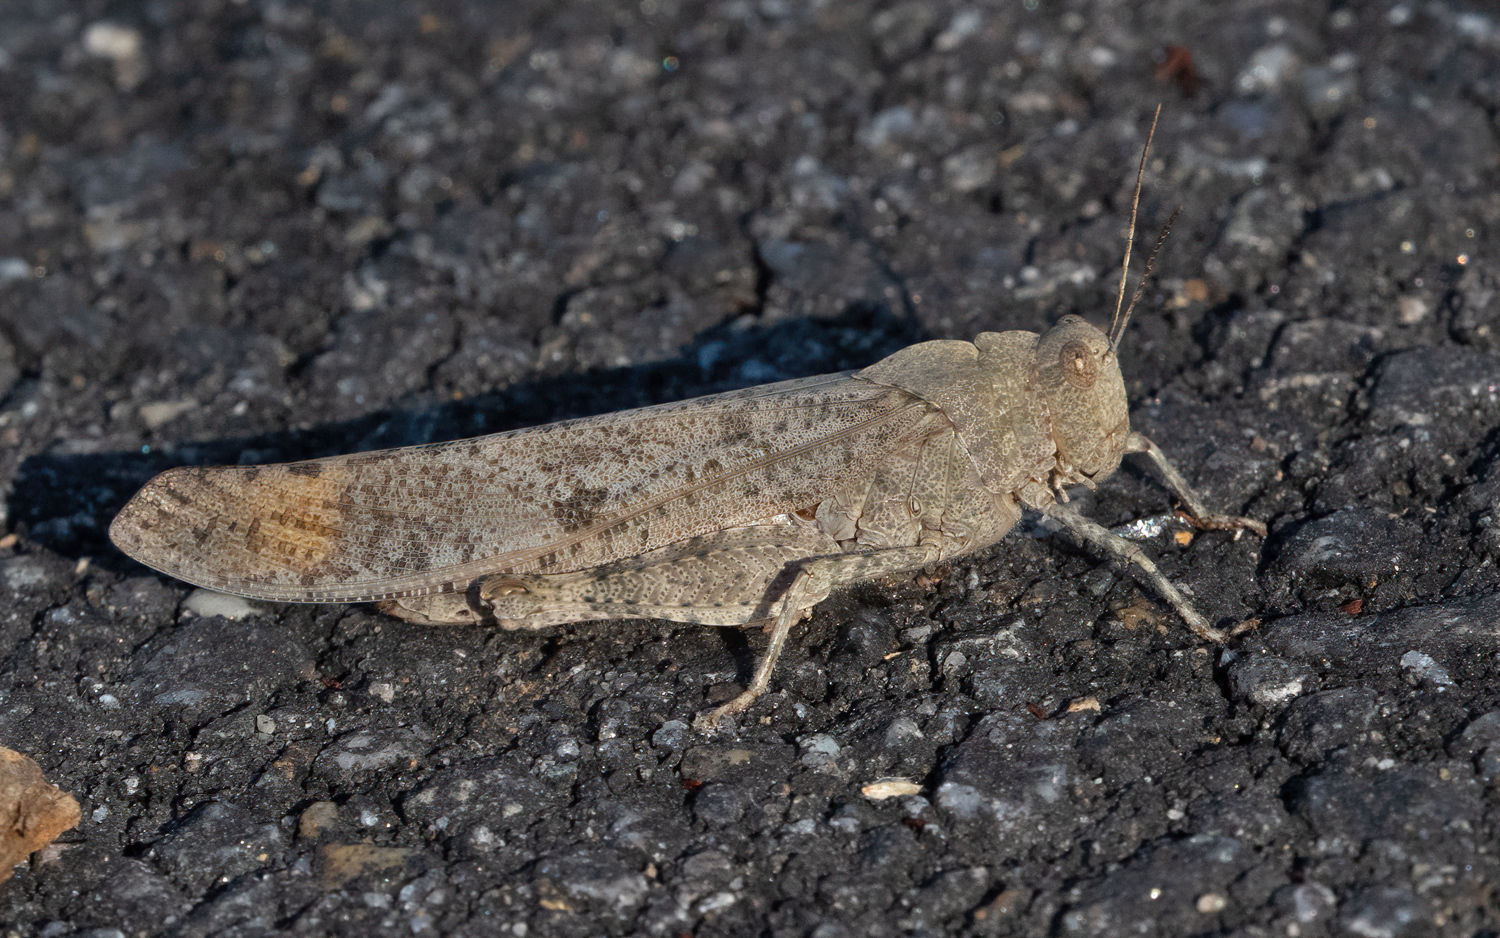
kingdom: Animalia
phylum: Arthropoda
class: Insecta
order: Orthoptera
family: Acrididae
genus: Dissosteira
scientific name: Dissosteira carolina
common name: Carolina grasshopper
